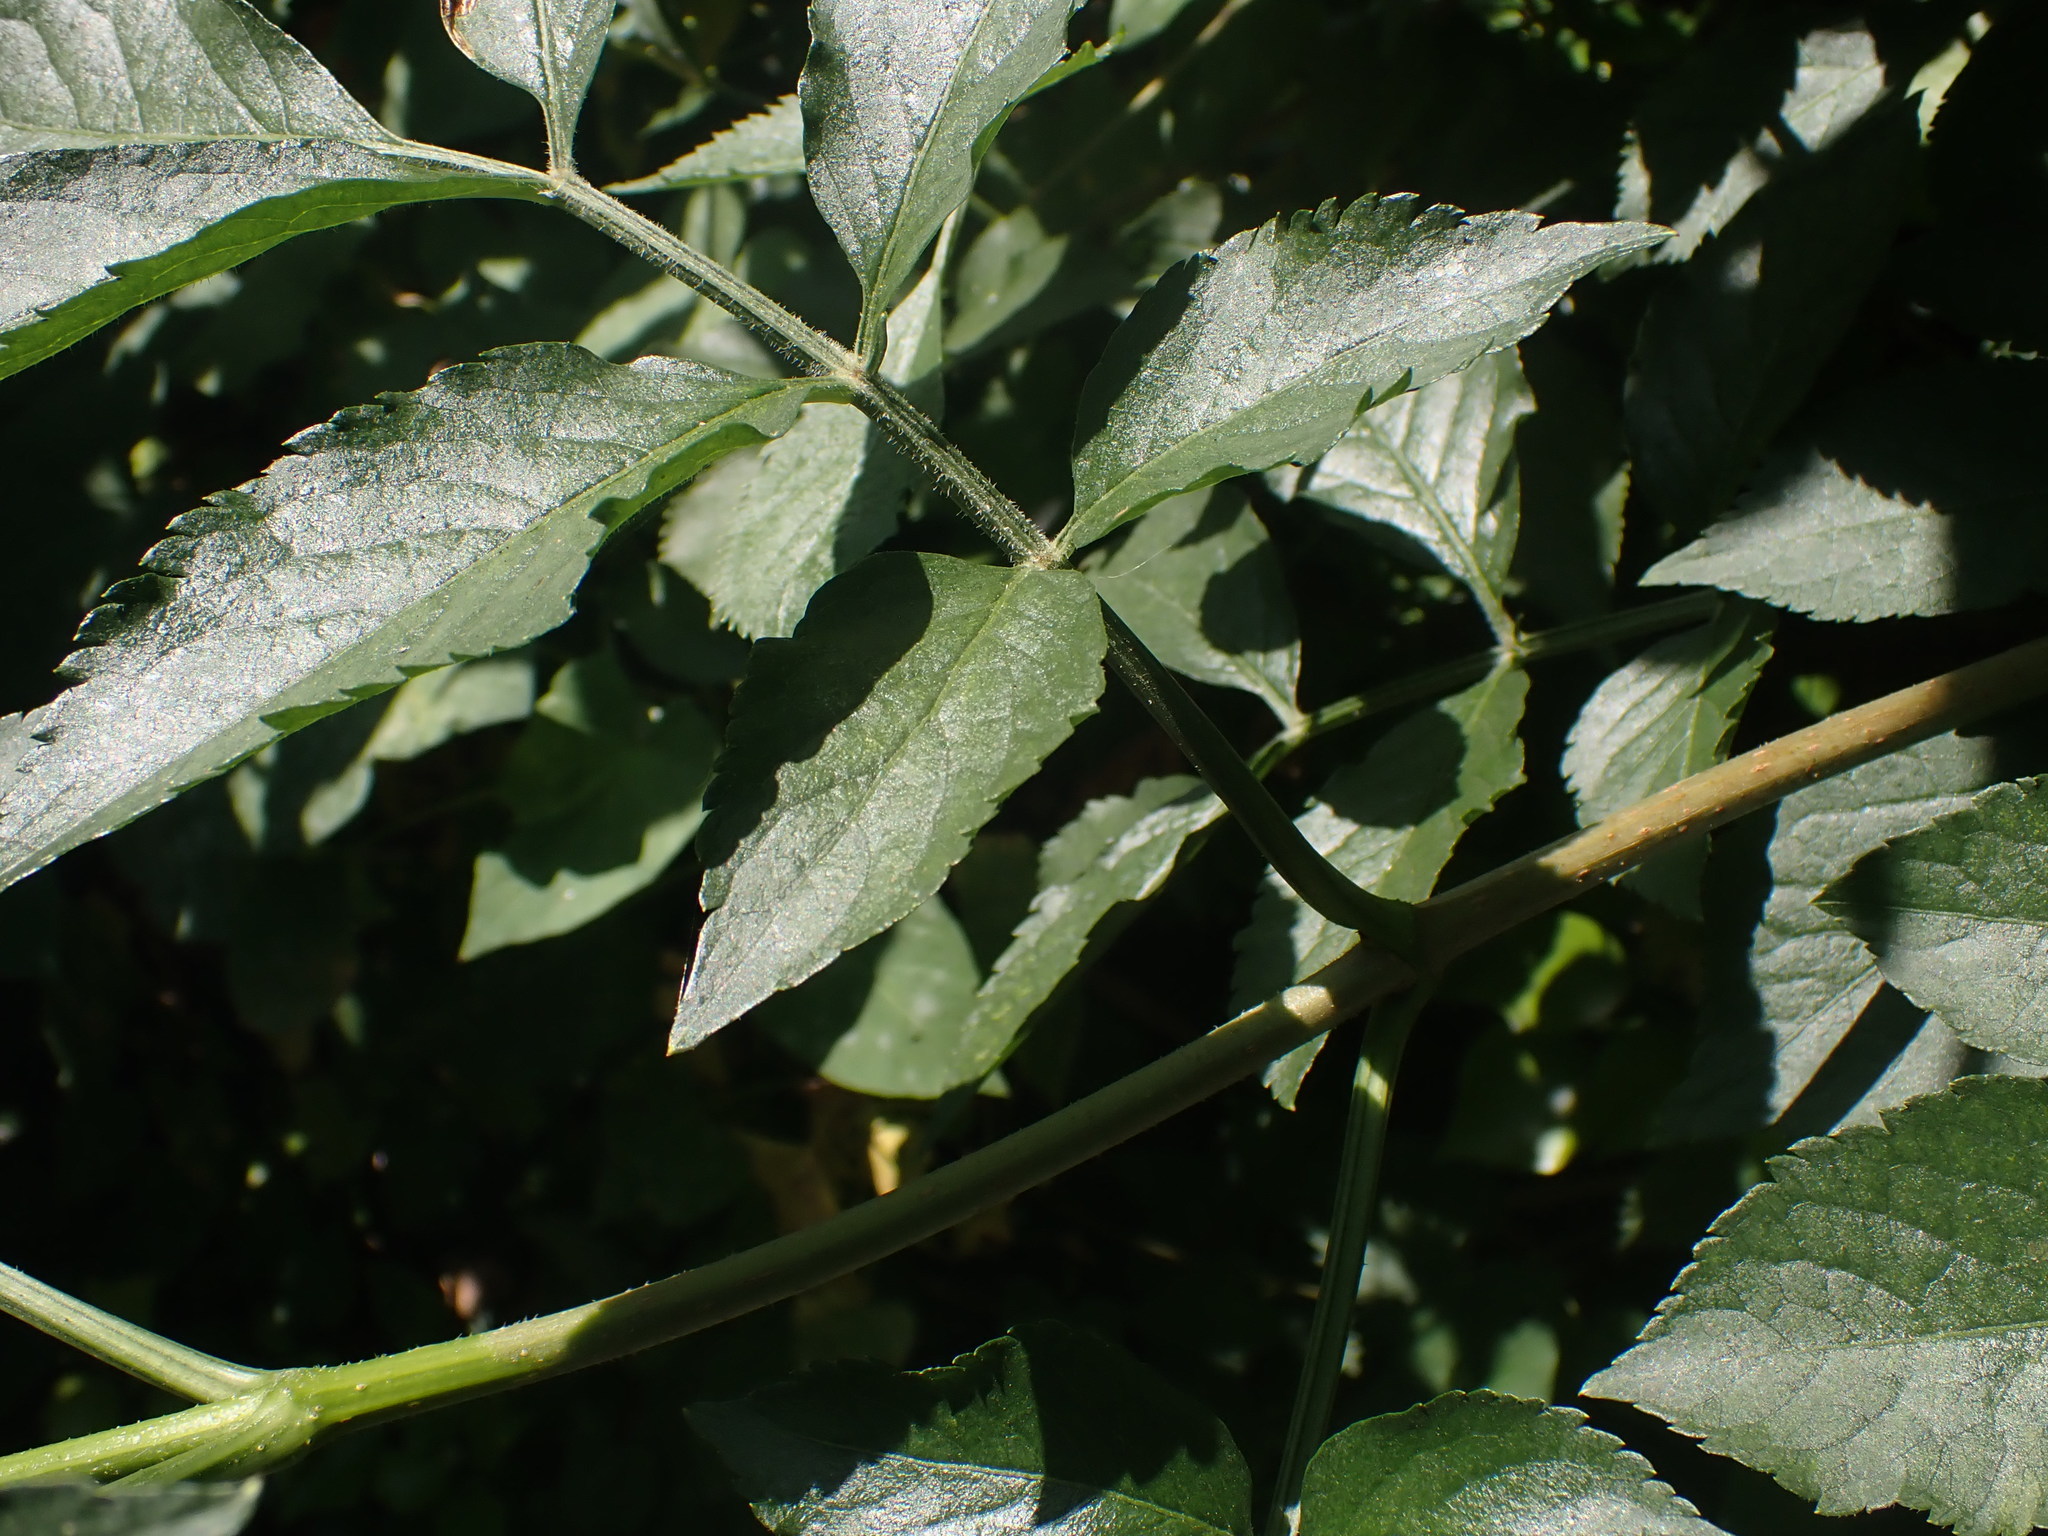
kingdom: Plantae
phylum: Tracheophyta
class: Magnoliopsida
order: Dipsacales
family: Viburnaceae
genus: Sambucus
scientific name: Sambucus nigra
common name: Elder
